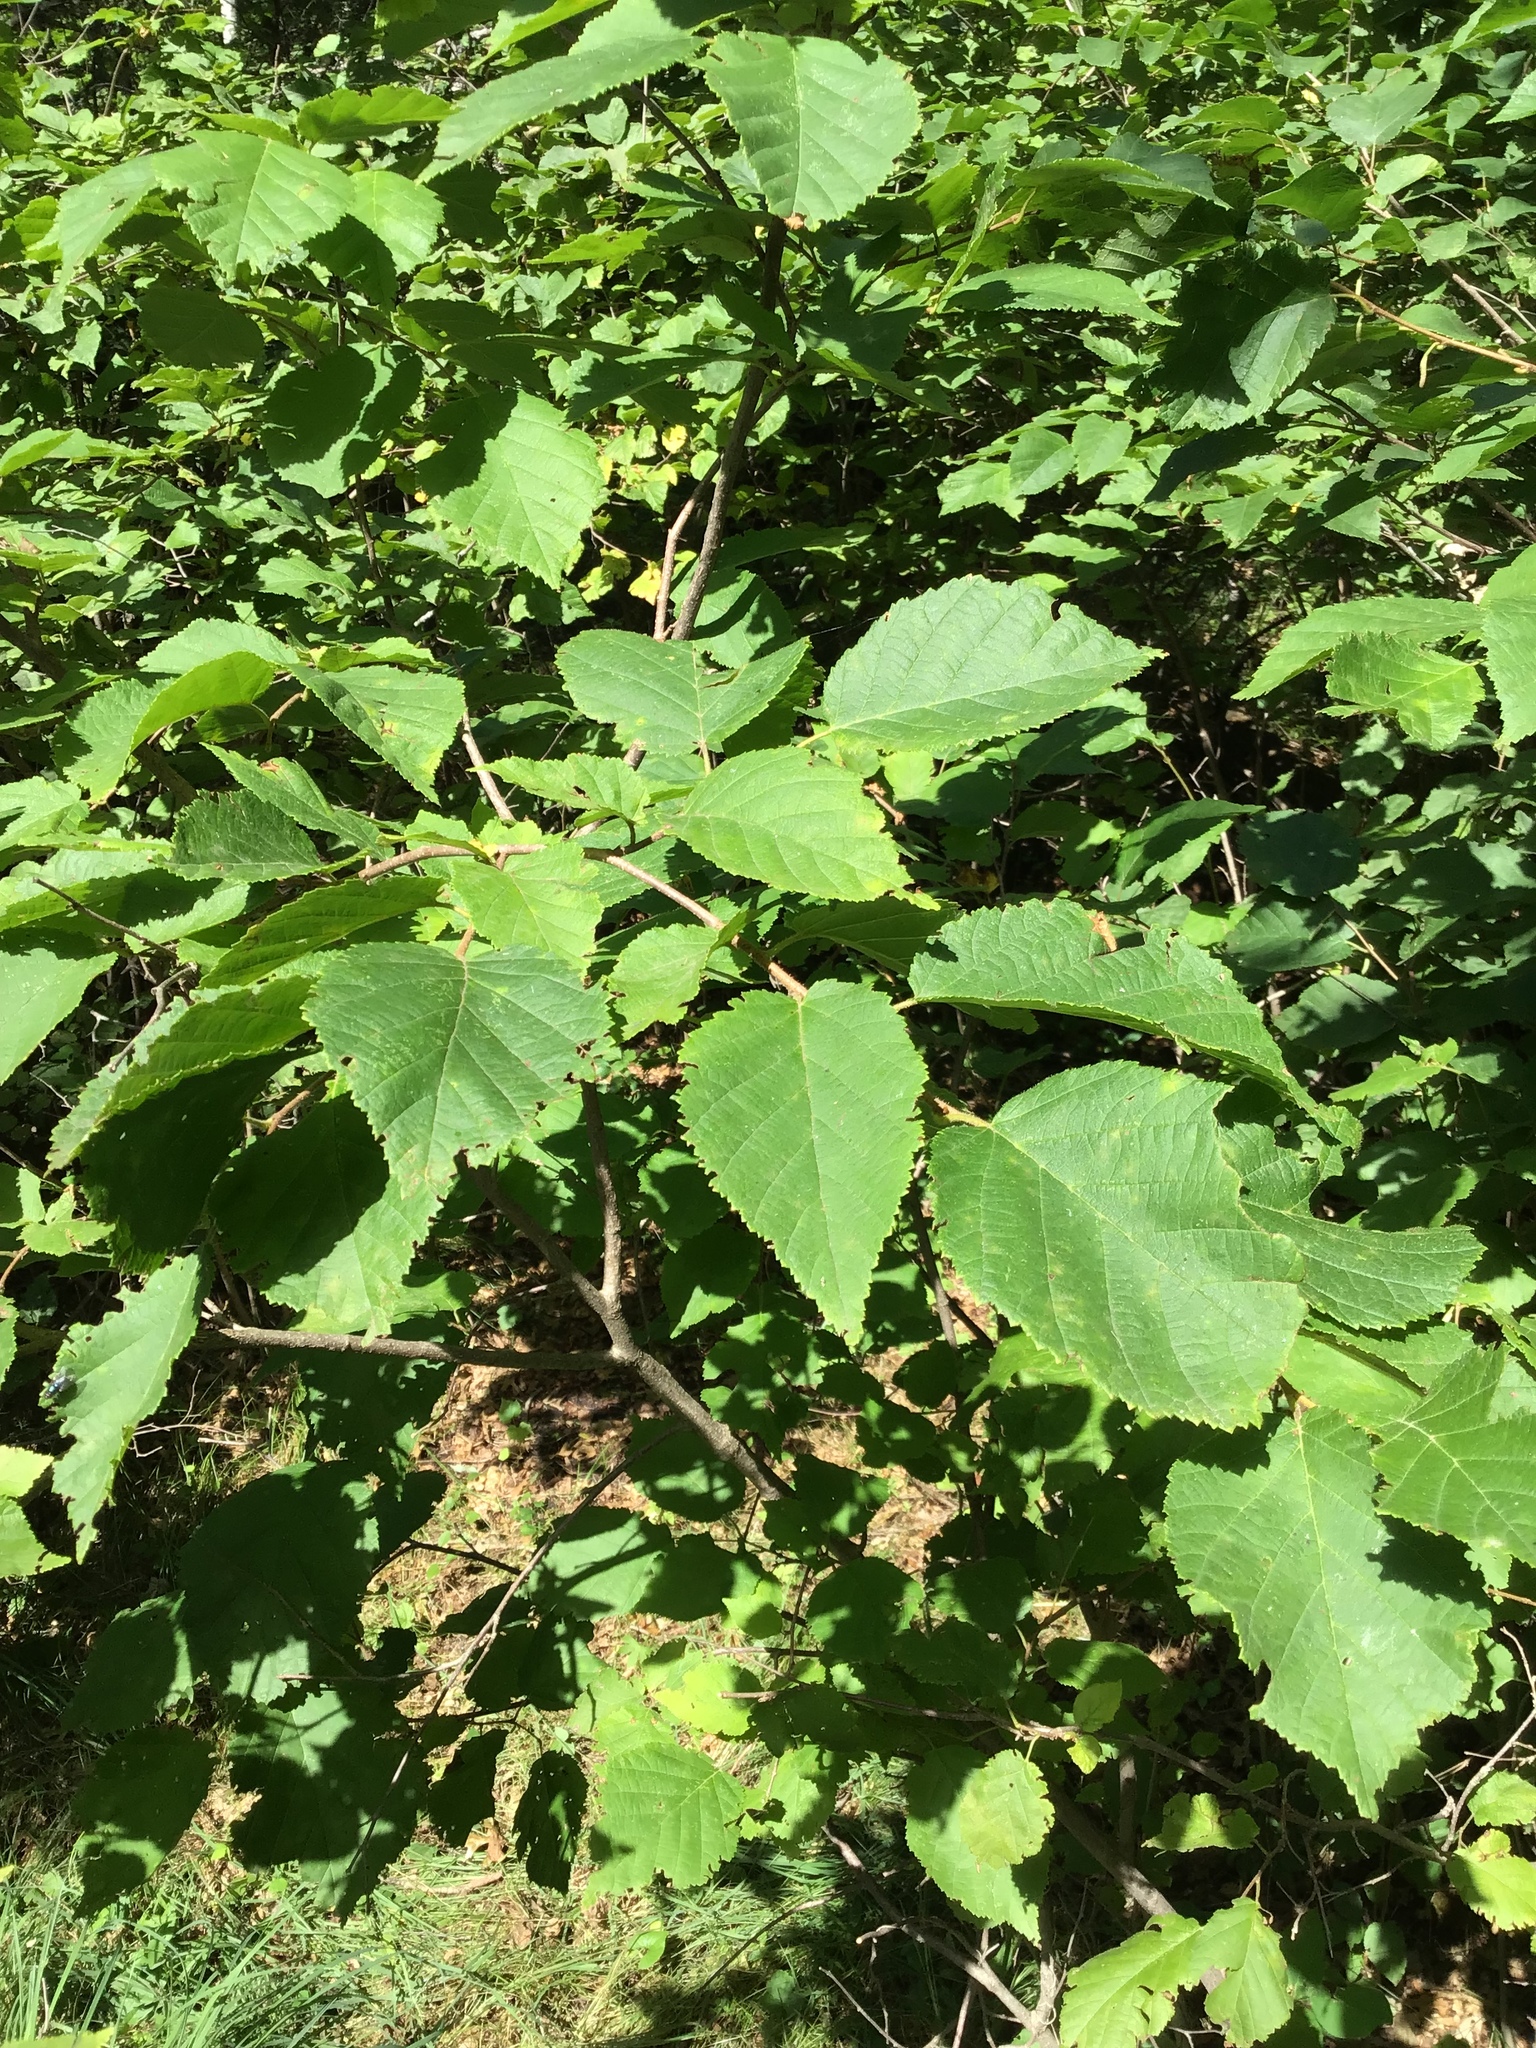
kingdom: Plantae
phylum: Tracheophyta
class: Magnoliopsida
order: Fagales
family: Betulaceae
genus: Corylus
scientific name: Corylus americana
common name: American hazel
